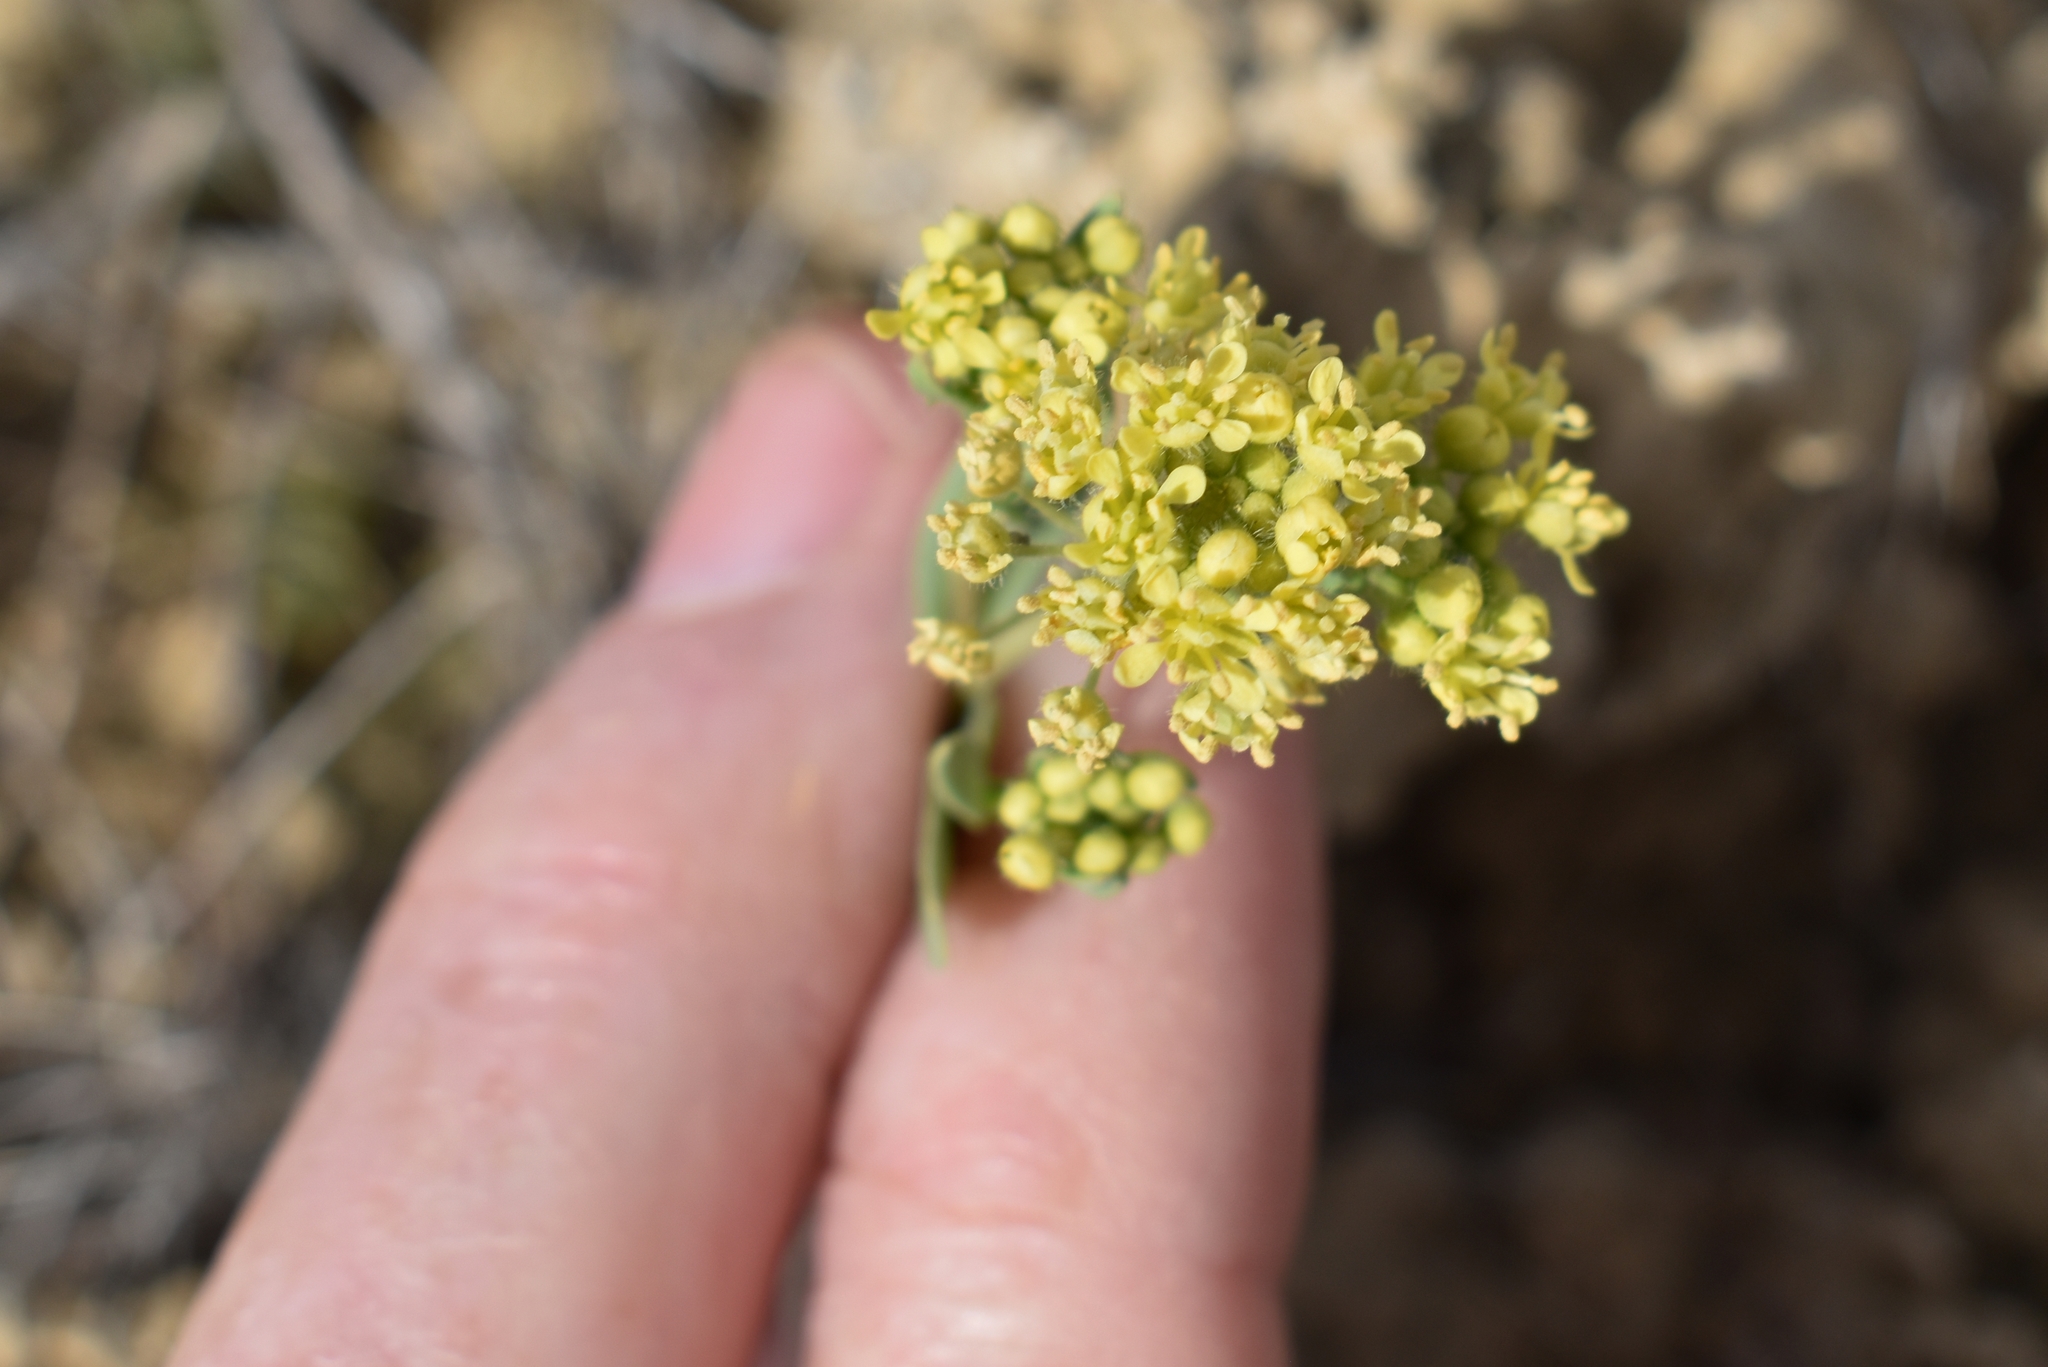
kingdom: Plantae
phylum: Tracheophyta
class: Magnoliopsida
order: Brassicales
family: Brassicaceae
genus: Lepidium
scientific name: Lepidium jaredii
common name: Jared's peppergrass
